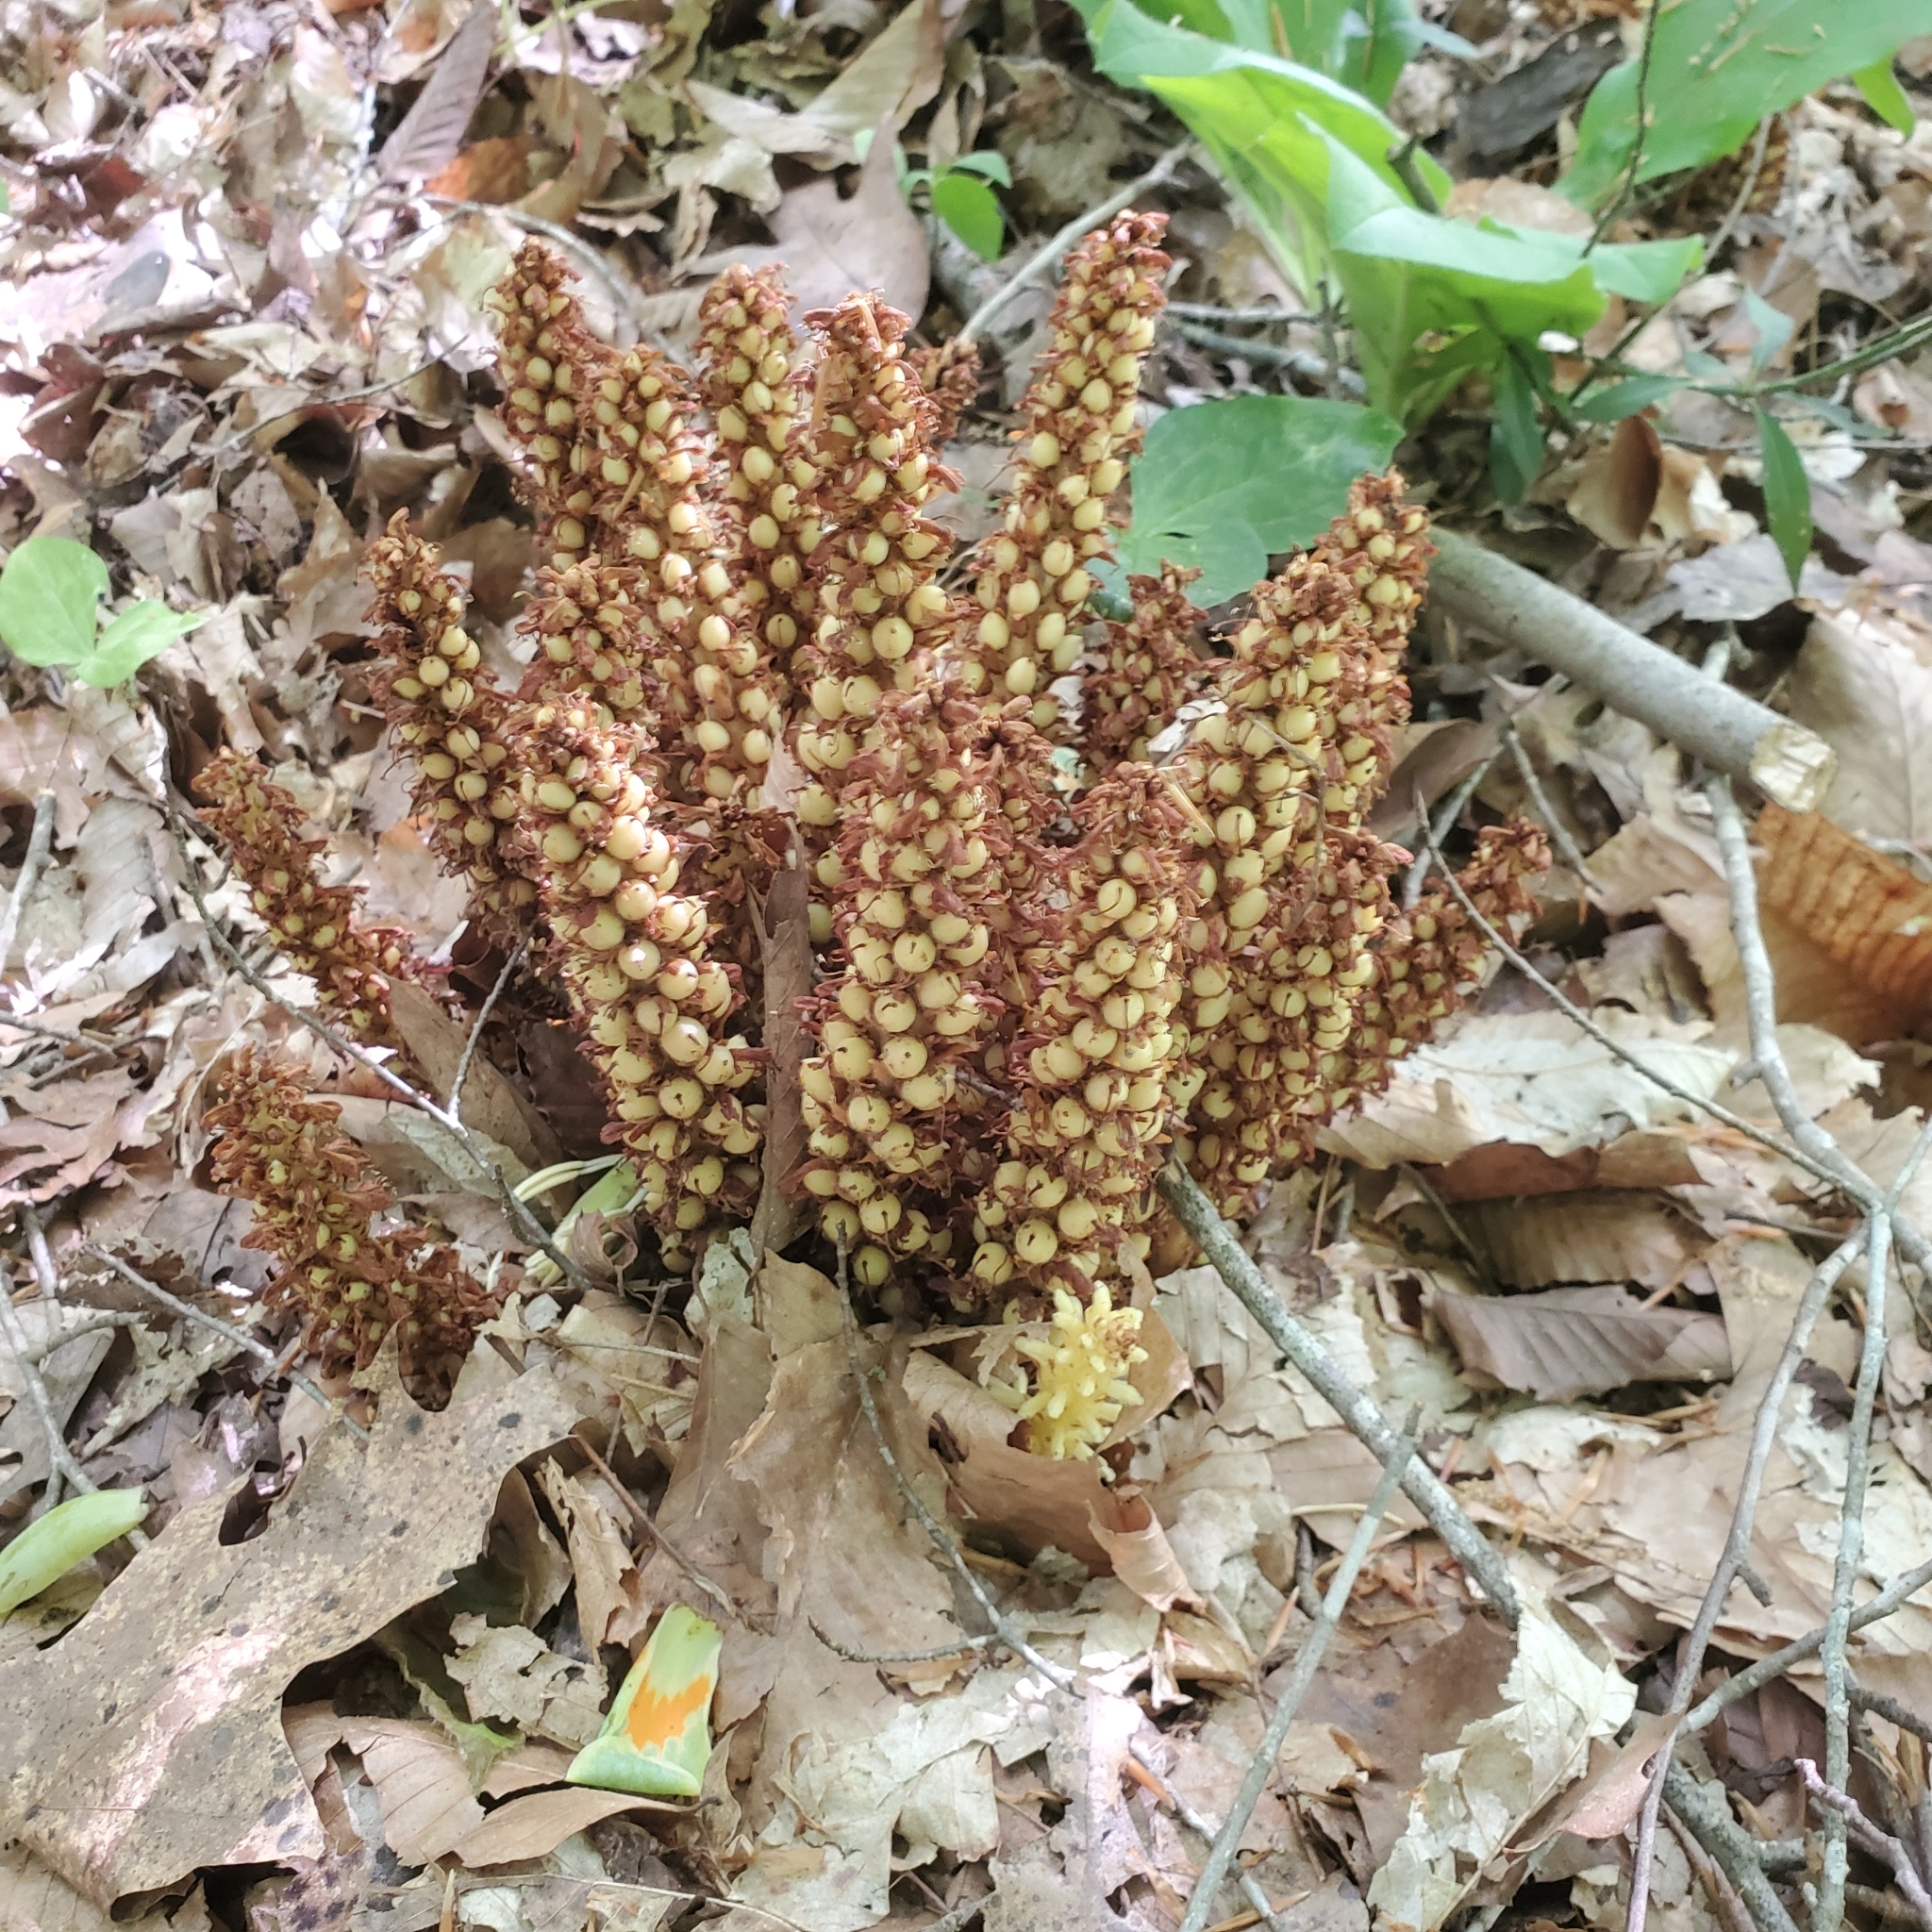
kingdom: Plantae
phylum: Tracheophyta
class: Magnoliopsida
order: Lamiales
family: Orobanchaceae
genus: Conopholis
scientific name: Conopholis americana
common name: American cancer-root
